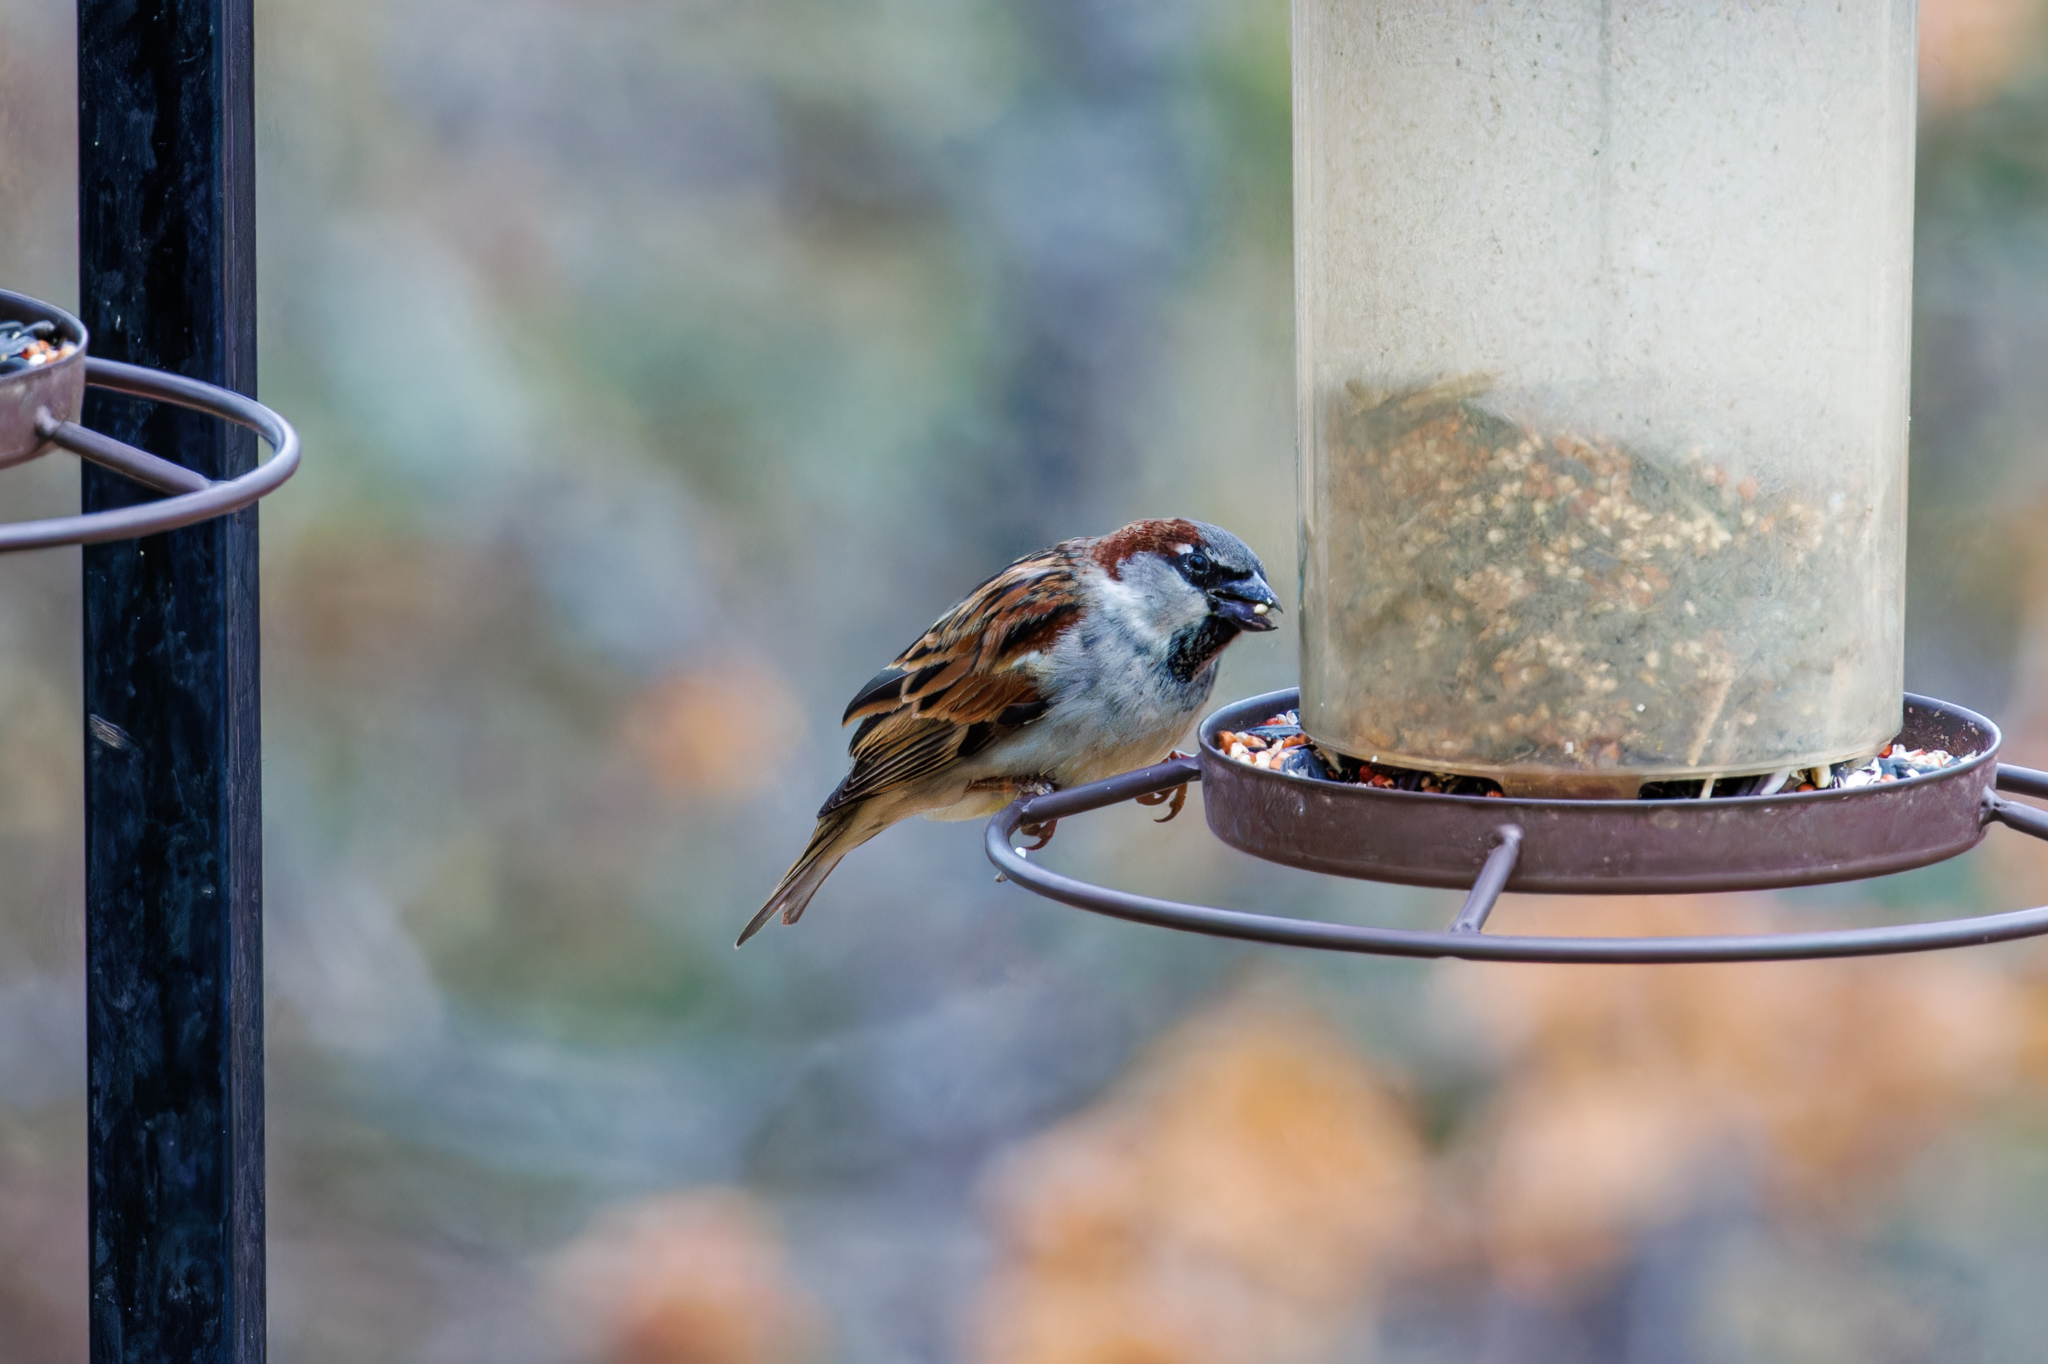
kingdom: Animalia
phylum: Chordata
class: Aves
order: Passeriformes
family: Passeridae
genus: Passer
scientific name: Passer domesticus
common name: House sparrow
